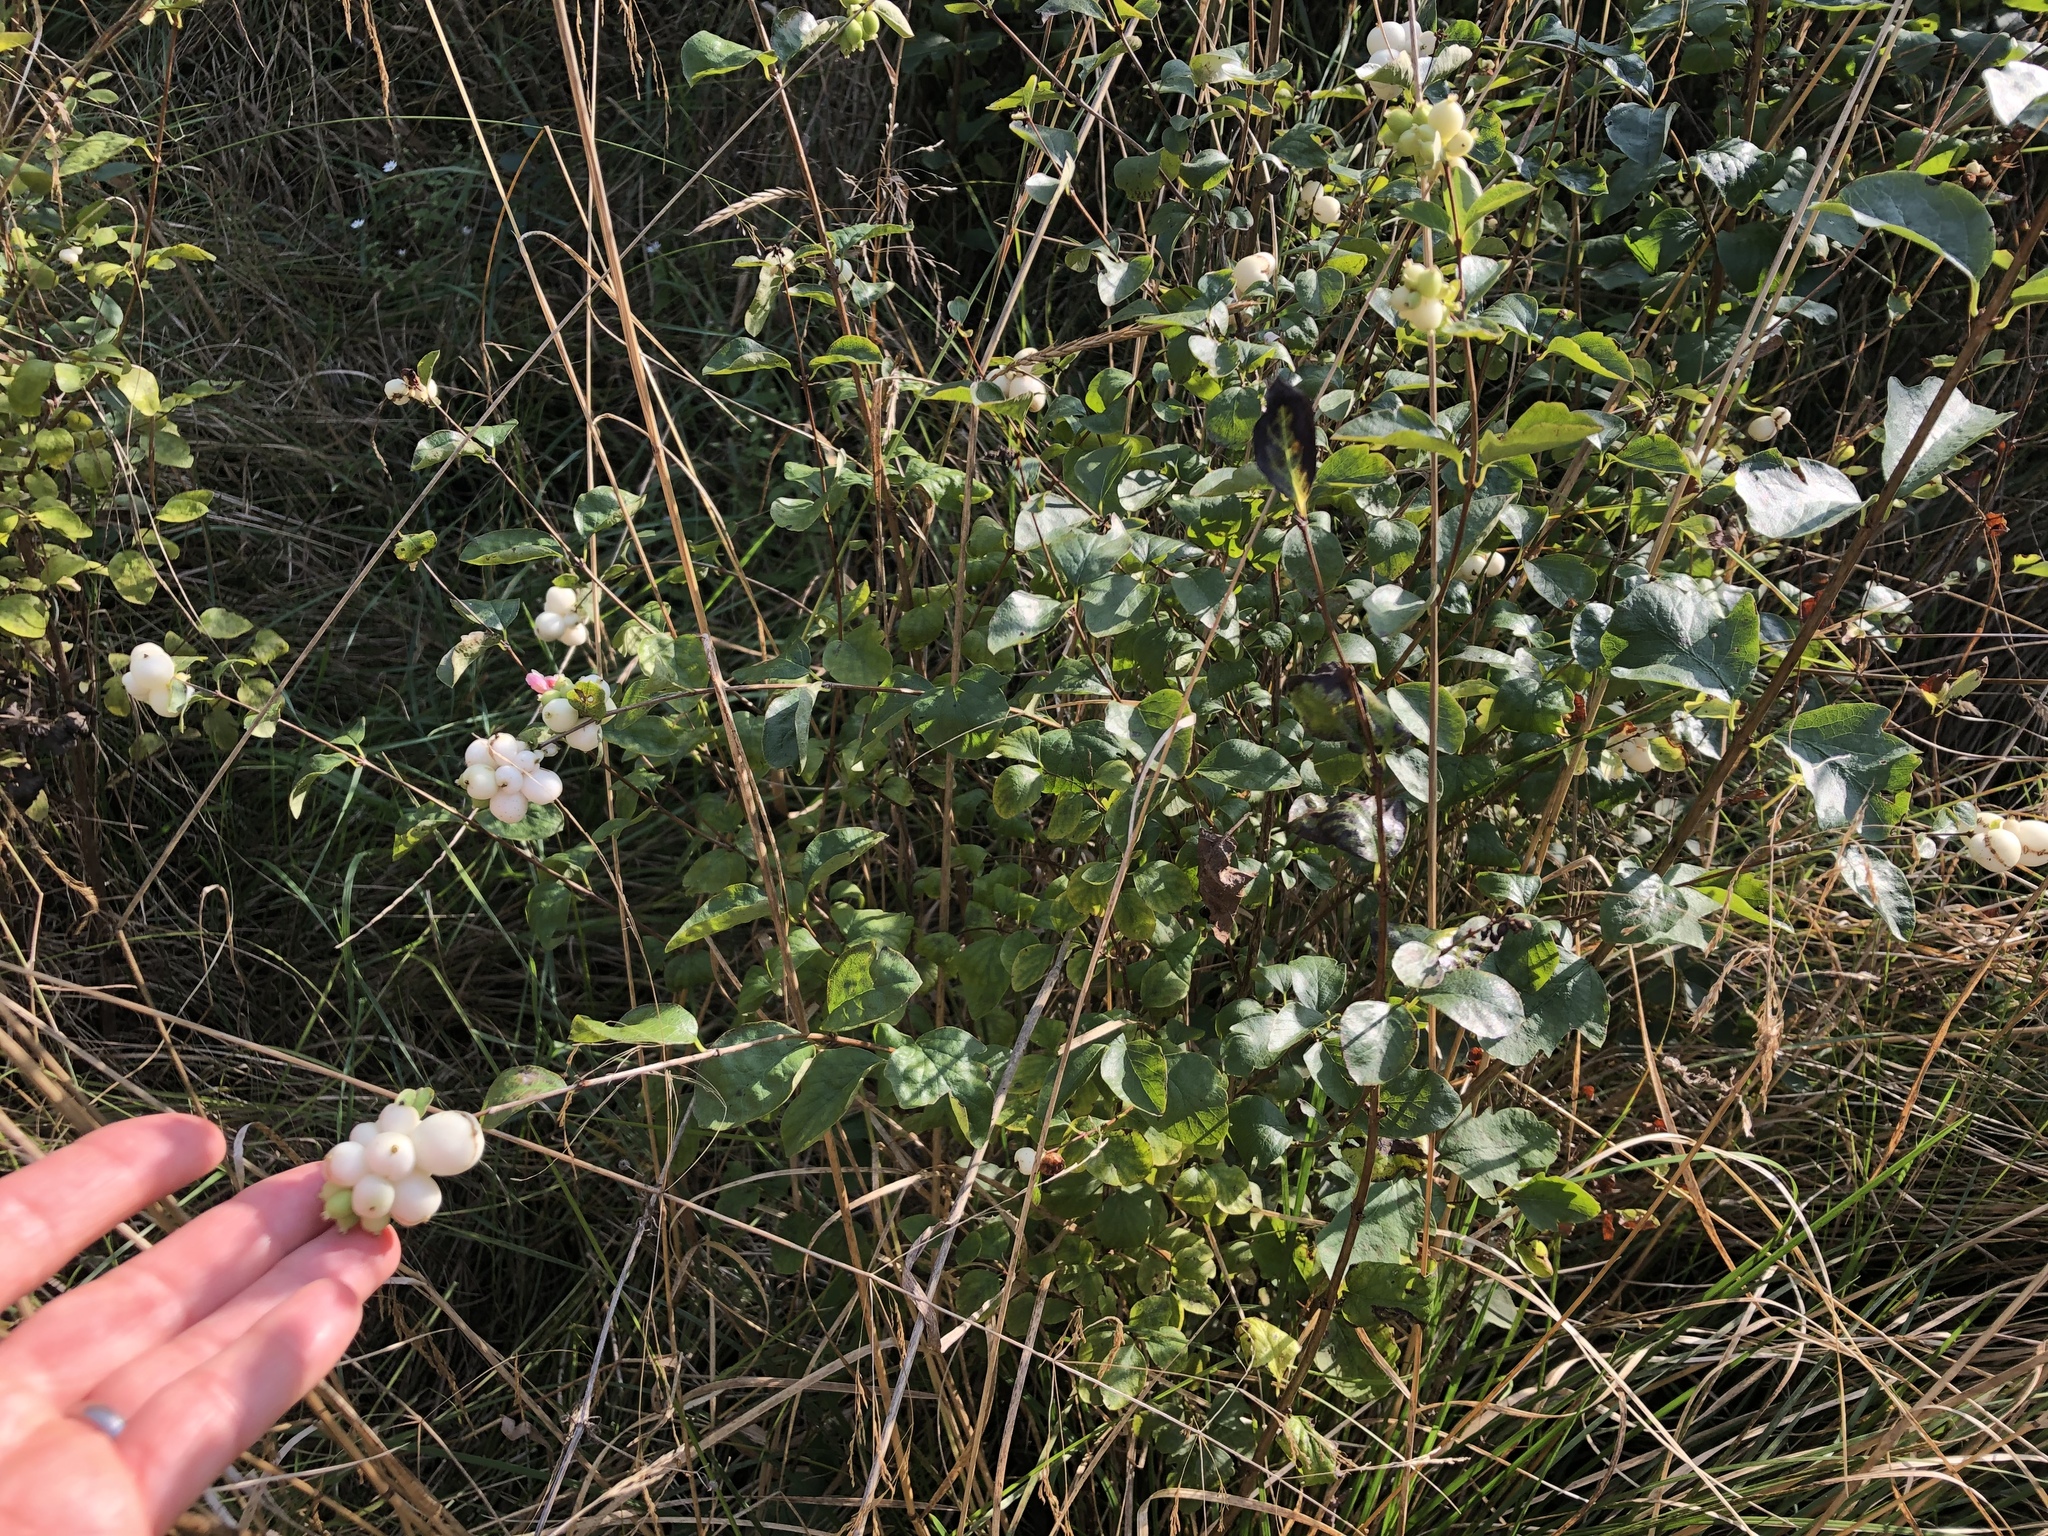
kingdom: Plantae
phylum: Tracheophyta
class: Magnoliopsida
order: Dipsacales
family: Caprifoliaceae
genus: Symphoricarpos
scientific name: Symphoricarpos albus
